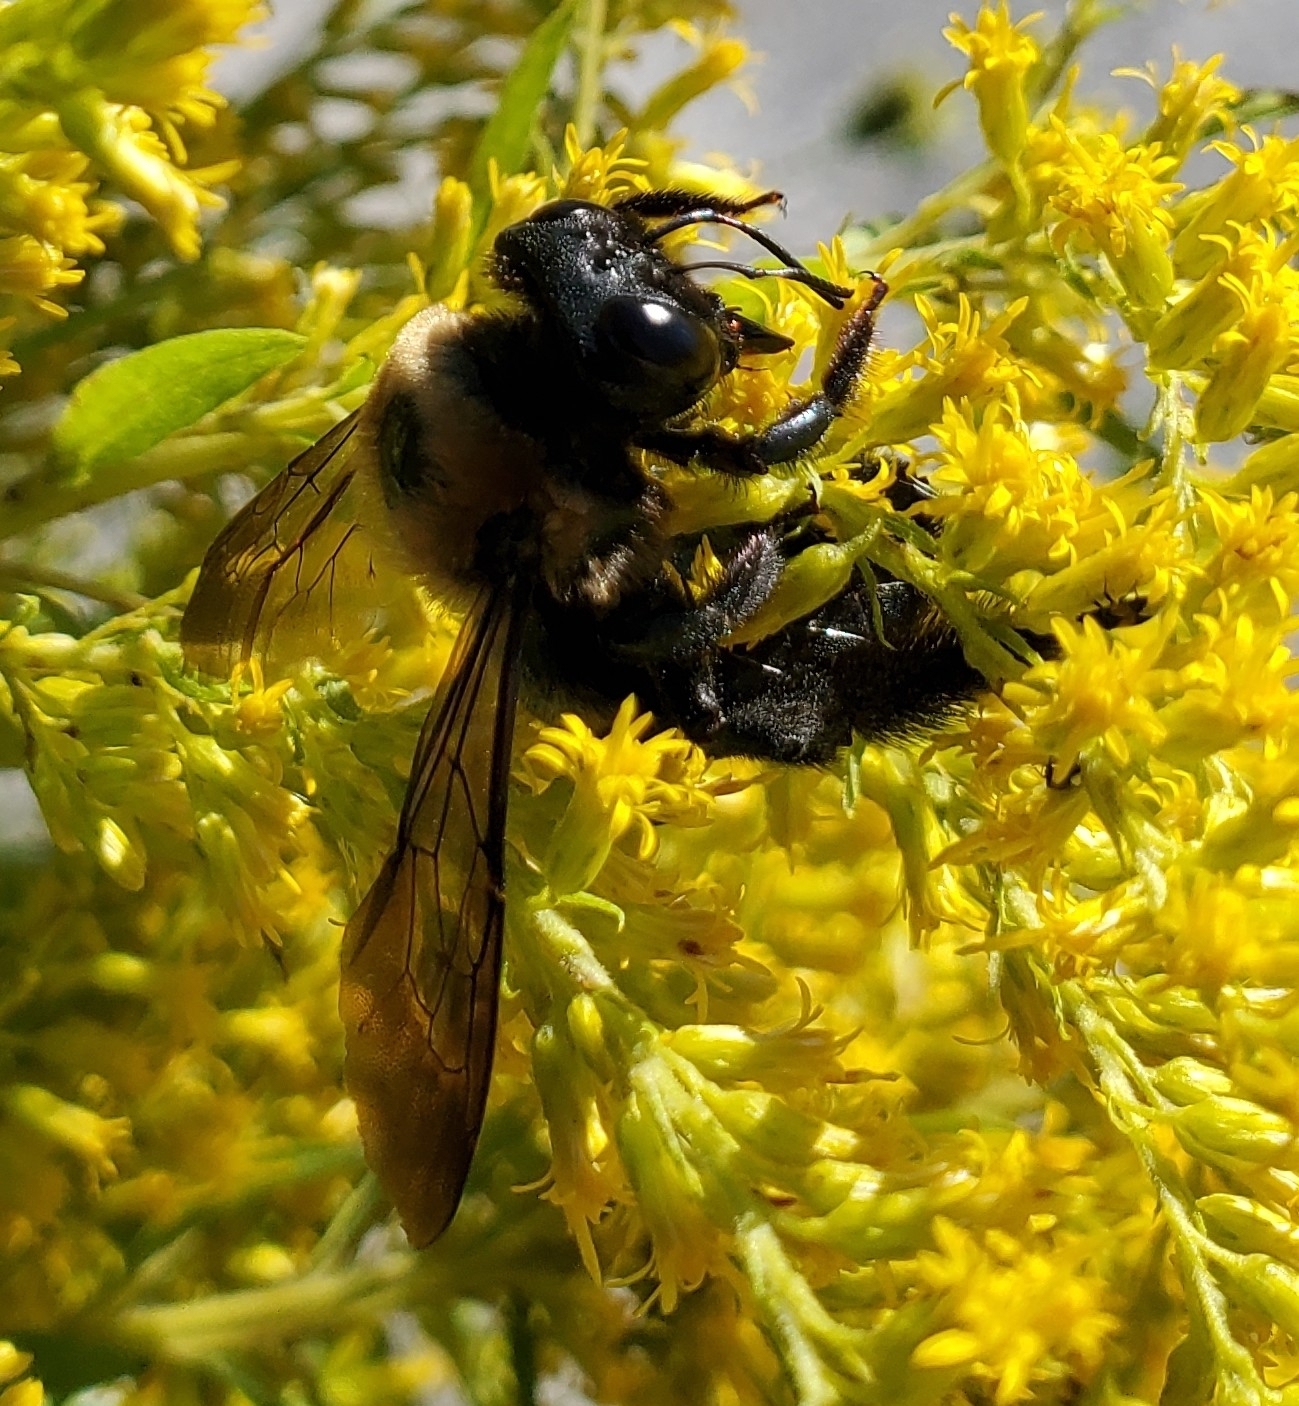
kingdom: Animalia
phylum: Arthropoda
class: Insecta
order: Hymenoptera
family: Apidae
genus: Xylocopa
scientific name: Xylocopa virginica
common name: Carpenter bee
